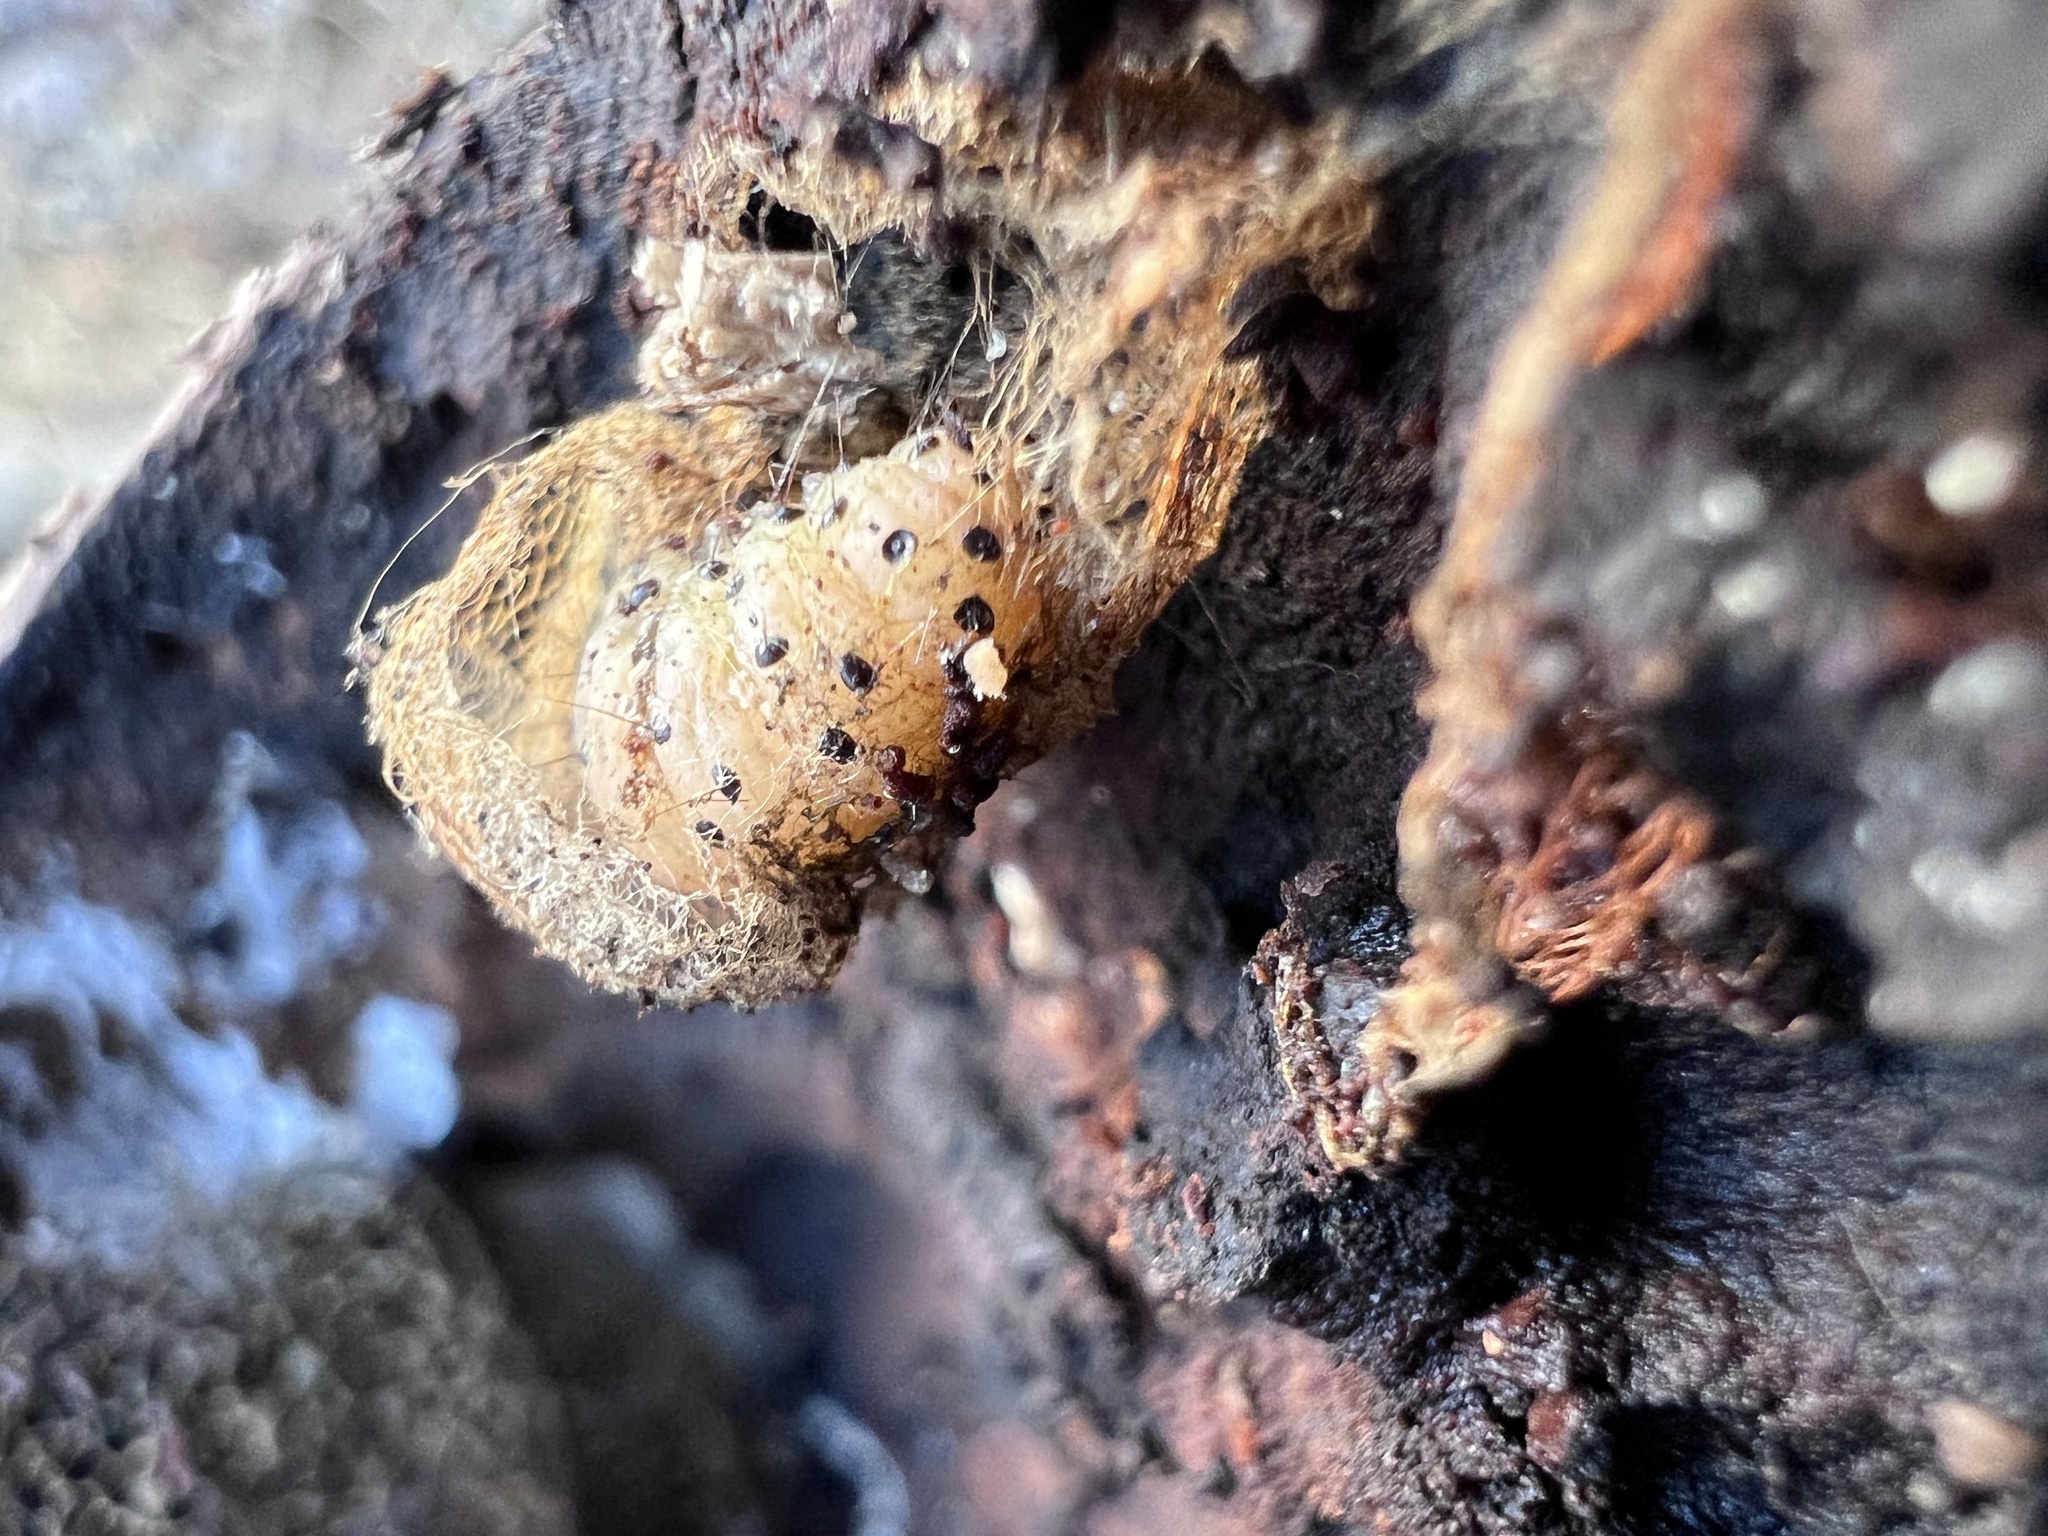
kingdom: Animalia
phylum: Arthropoda
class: Insecta
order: Lepidoptera
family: Erebidae
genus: Scolecocampa
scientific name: Scolecocampa liburna
